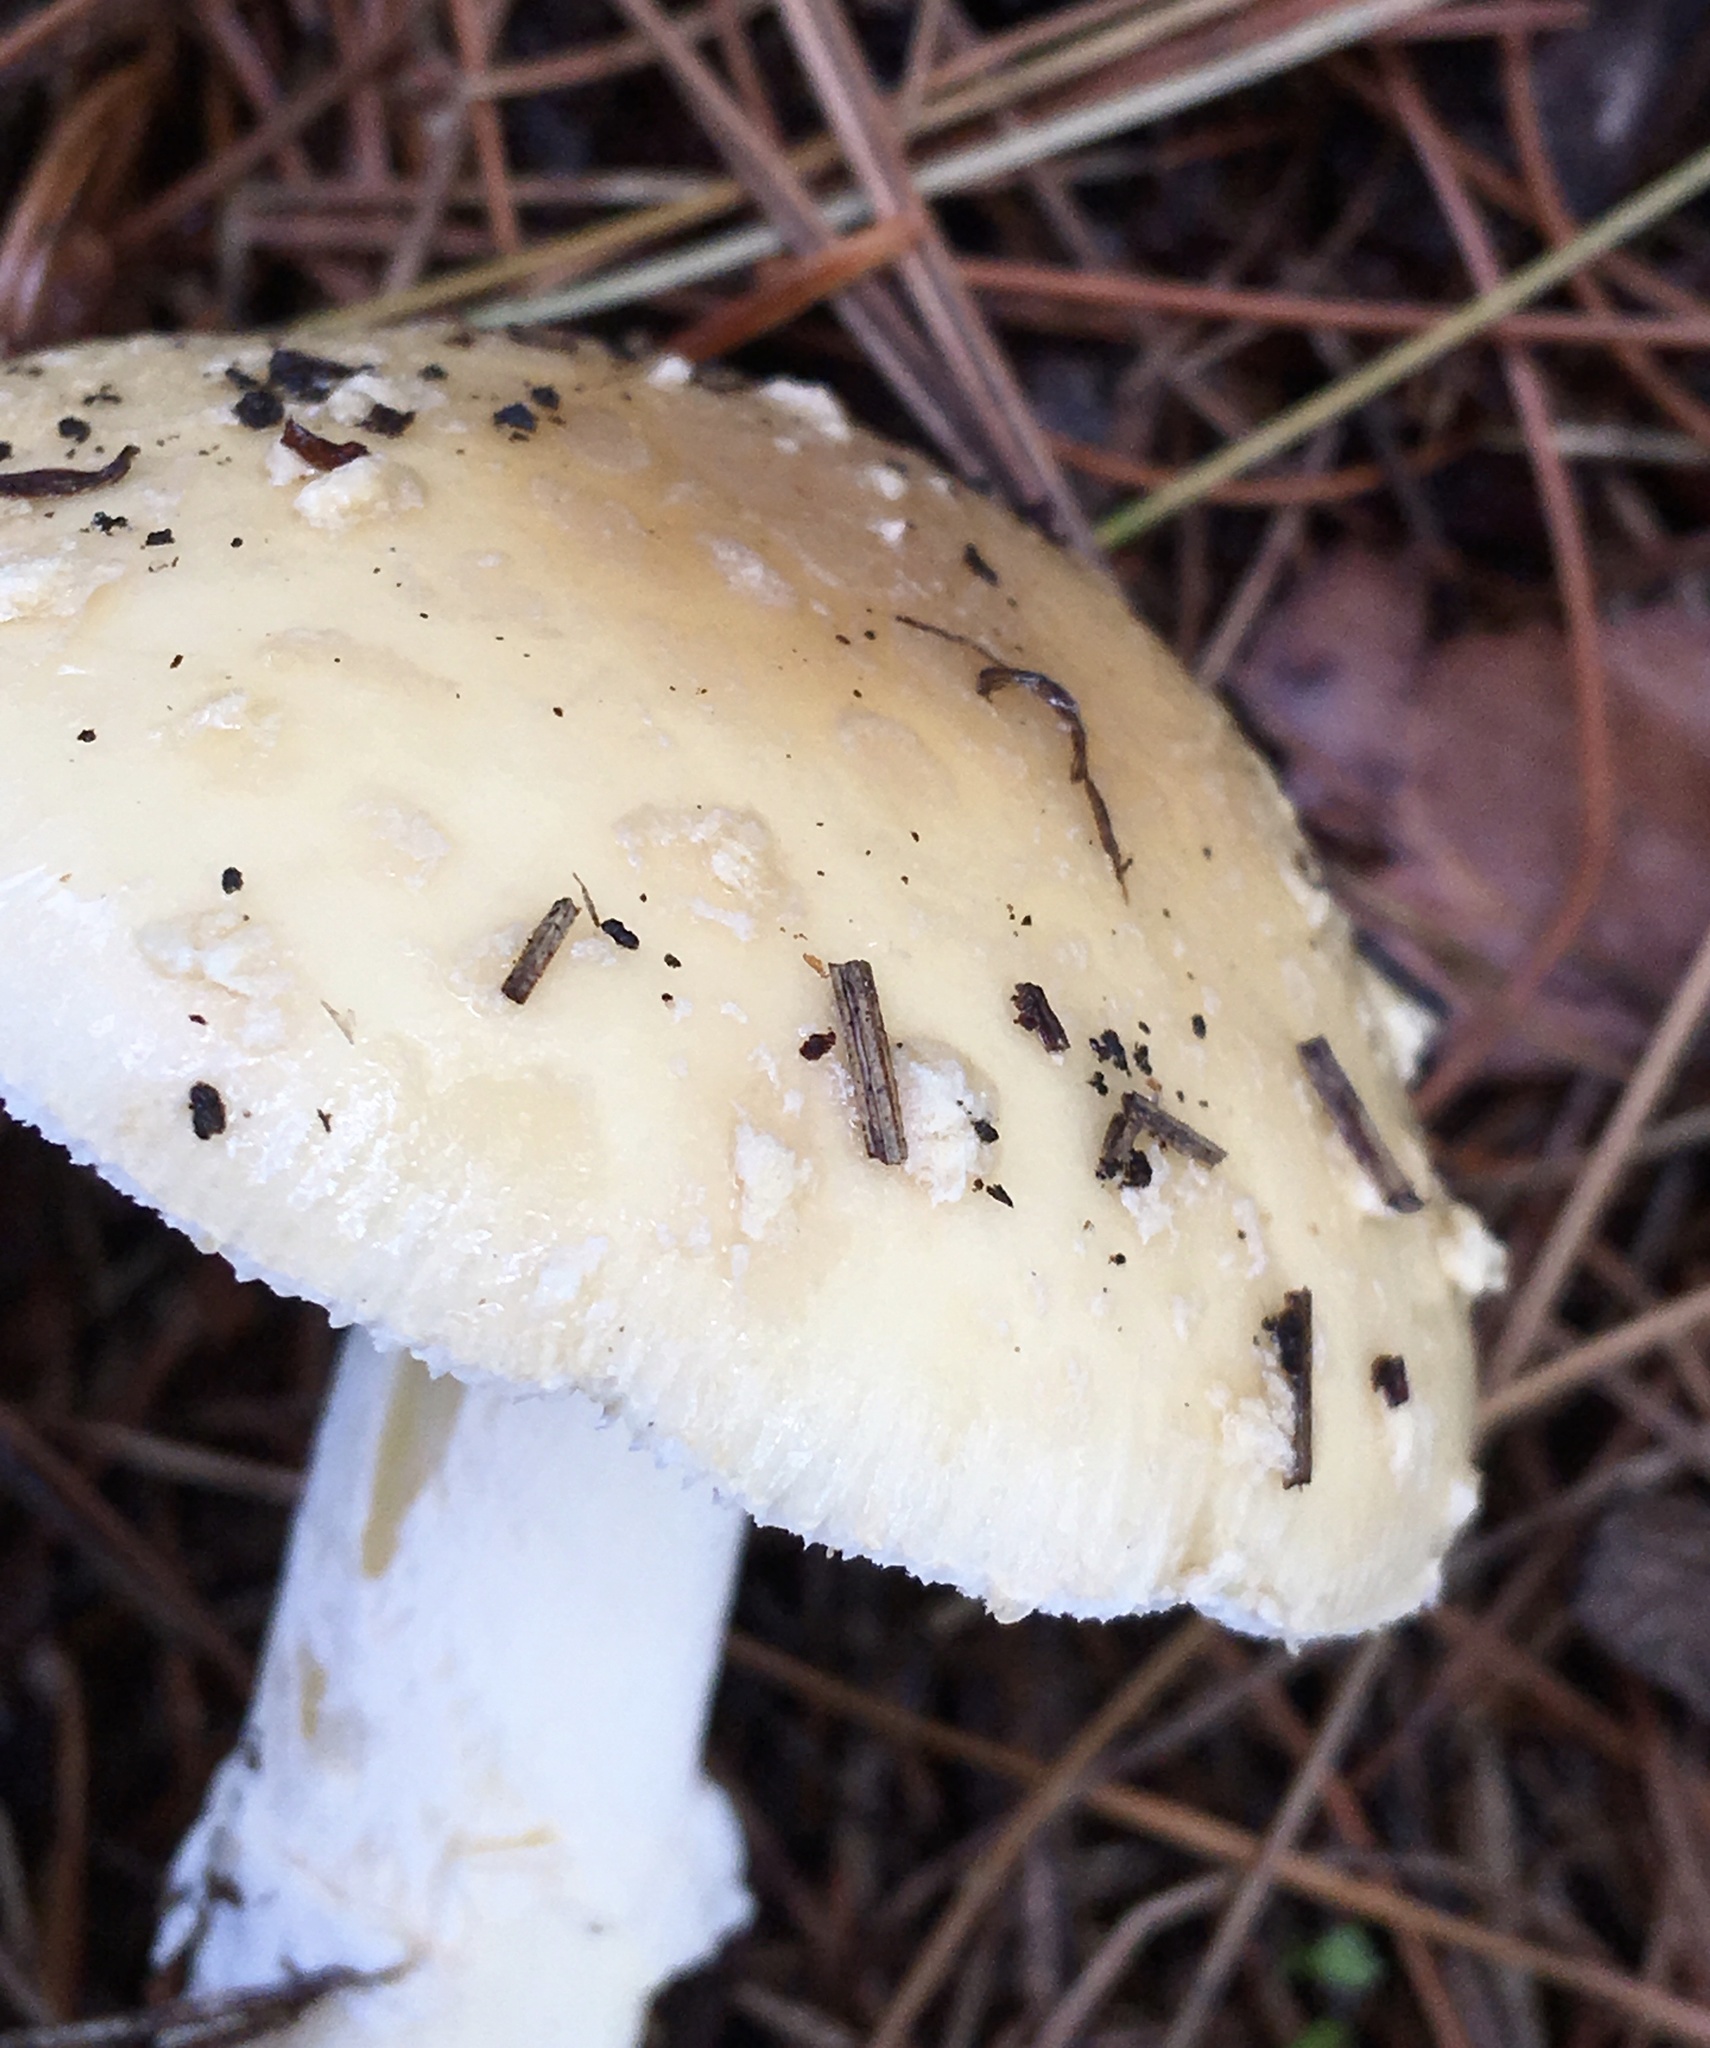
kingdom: Fungi
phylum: Basidiomycota
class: Agaricomycetes
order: Agaricales
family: Amanitaceae
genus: Amanita
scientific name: Amanita crenulata
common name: Poison champagne amanita
